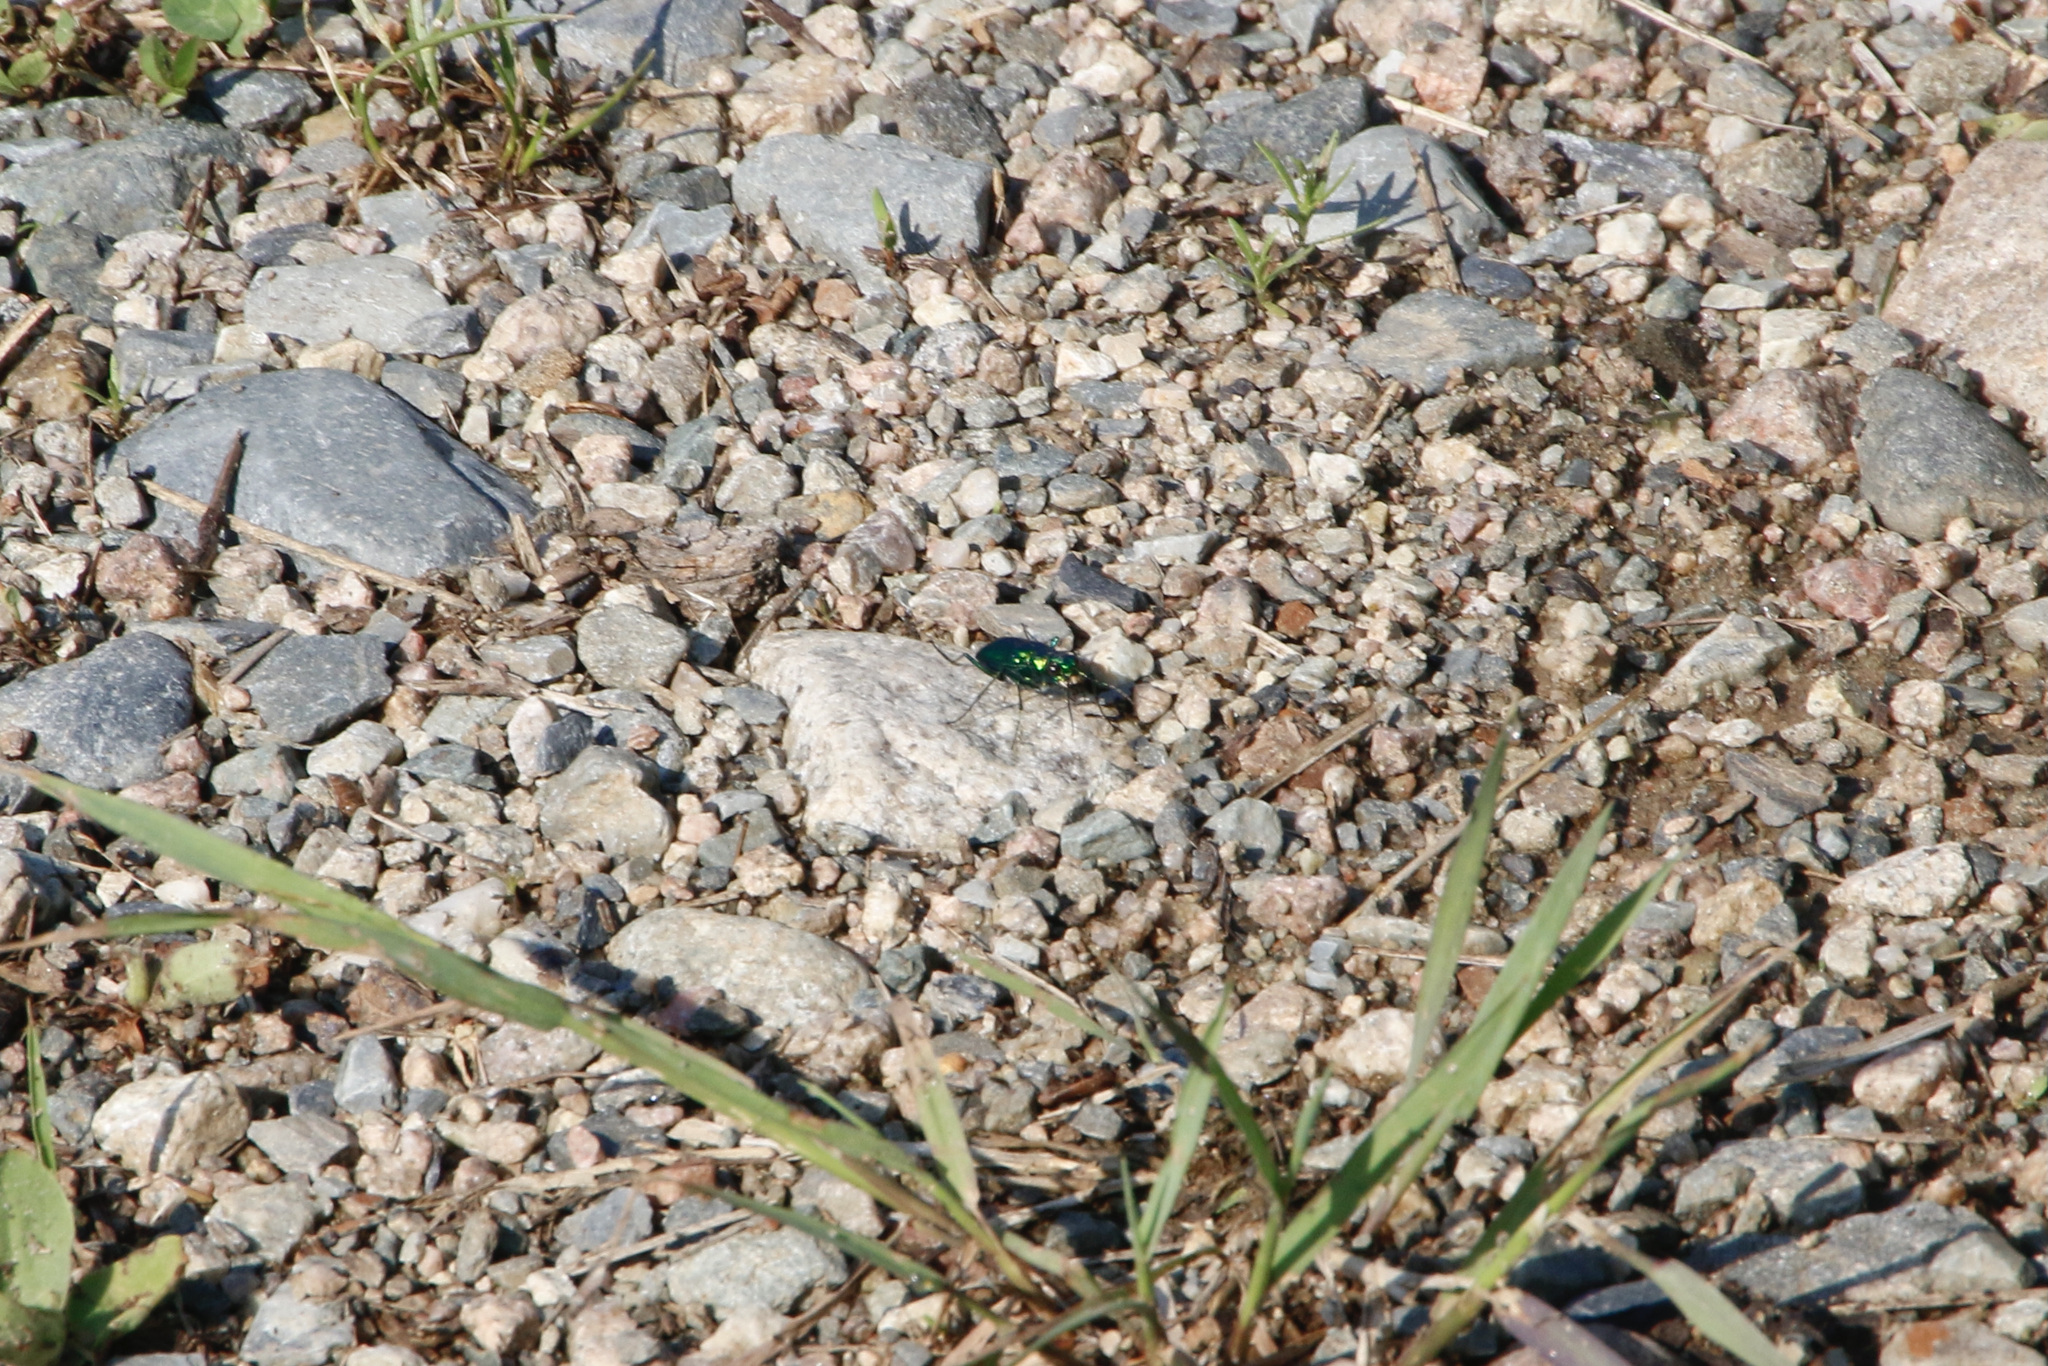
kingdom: Animalia
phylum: Arthropoda
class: Insecta
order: Coleoptera
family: Carabidae
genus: Cicindela
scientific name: Cicindela denikei
